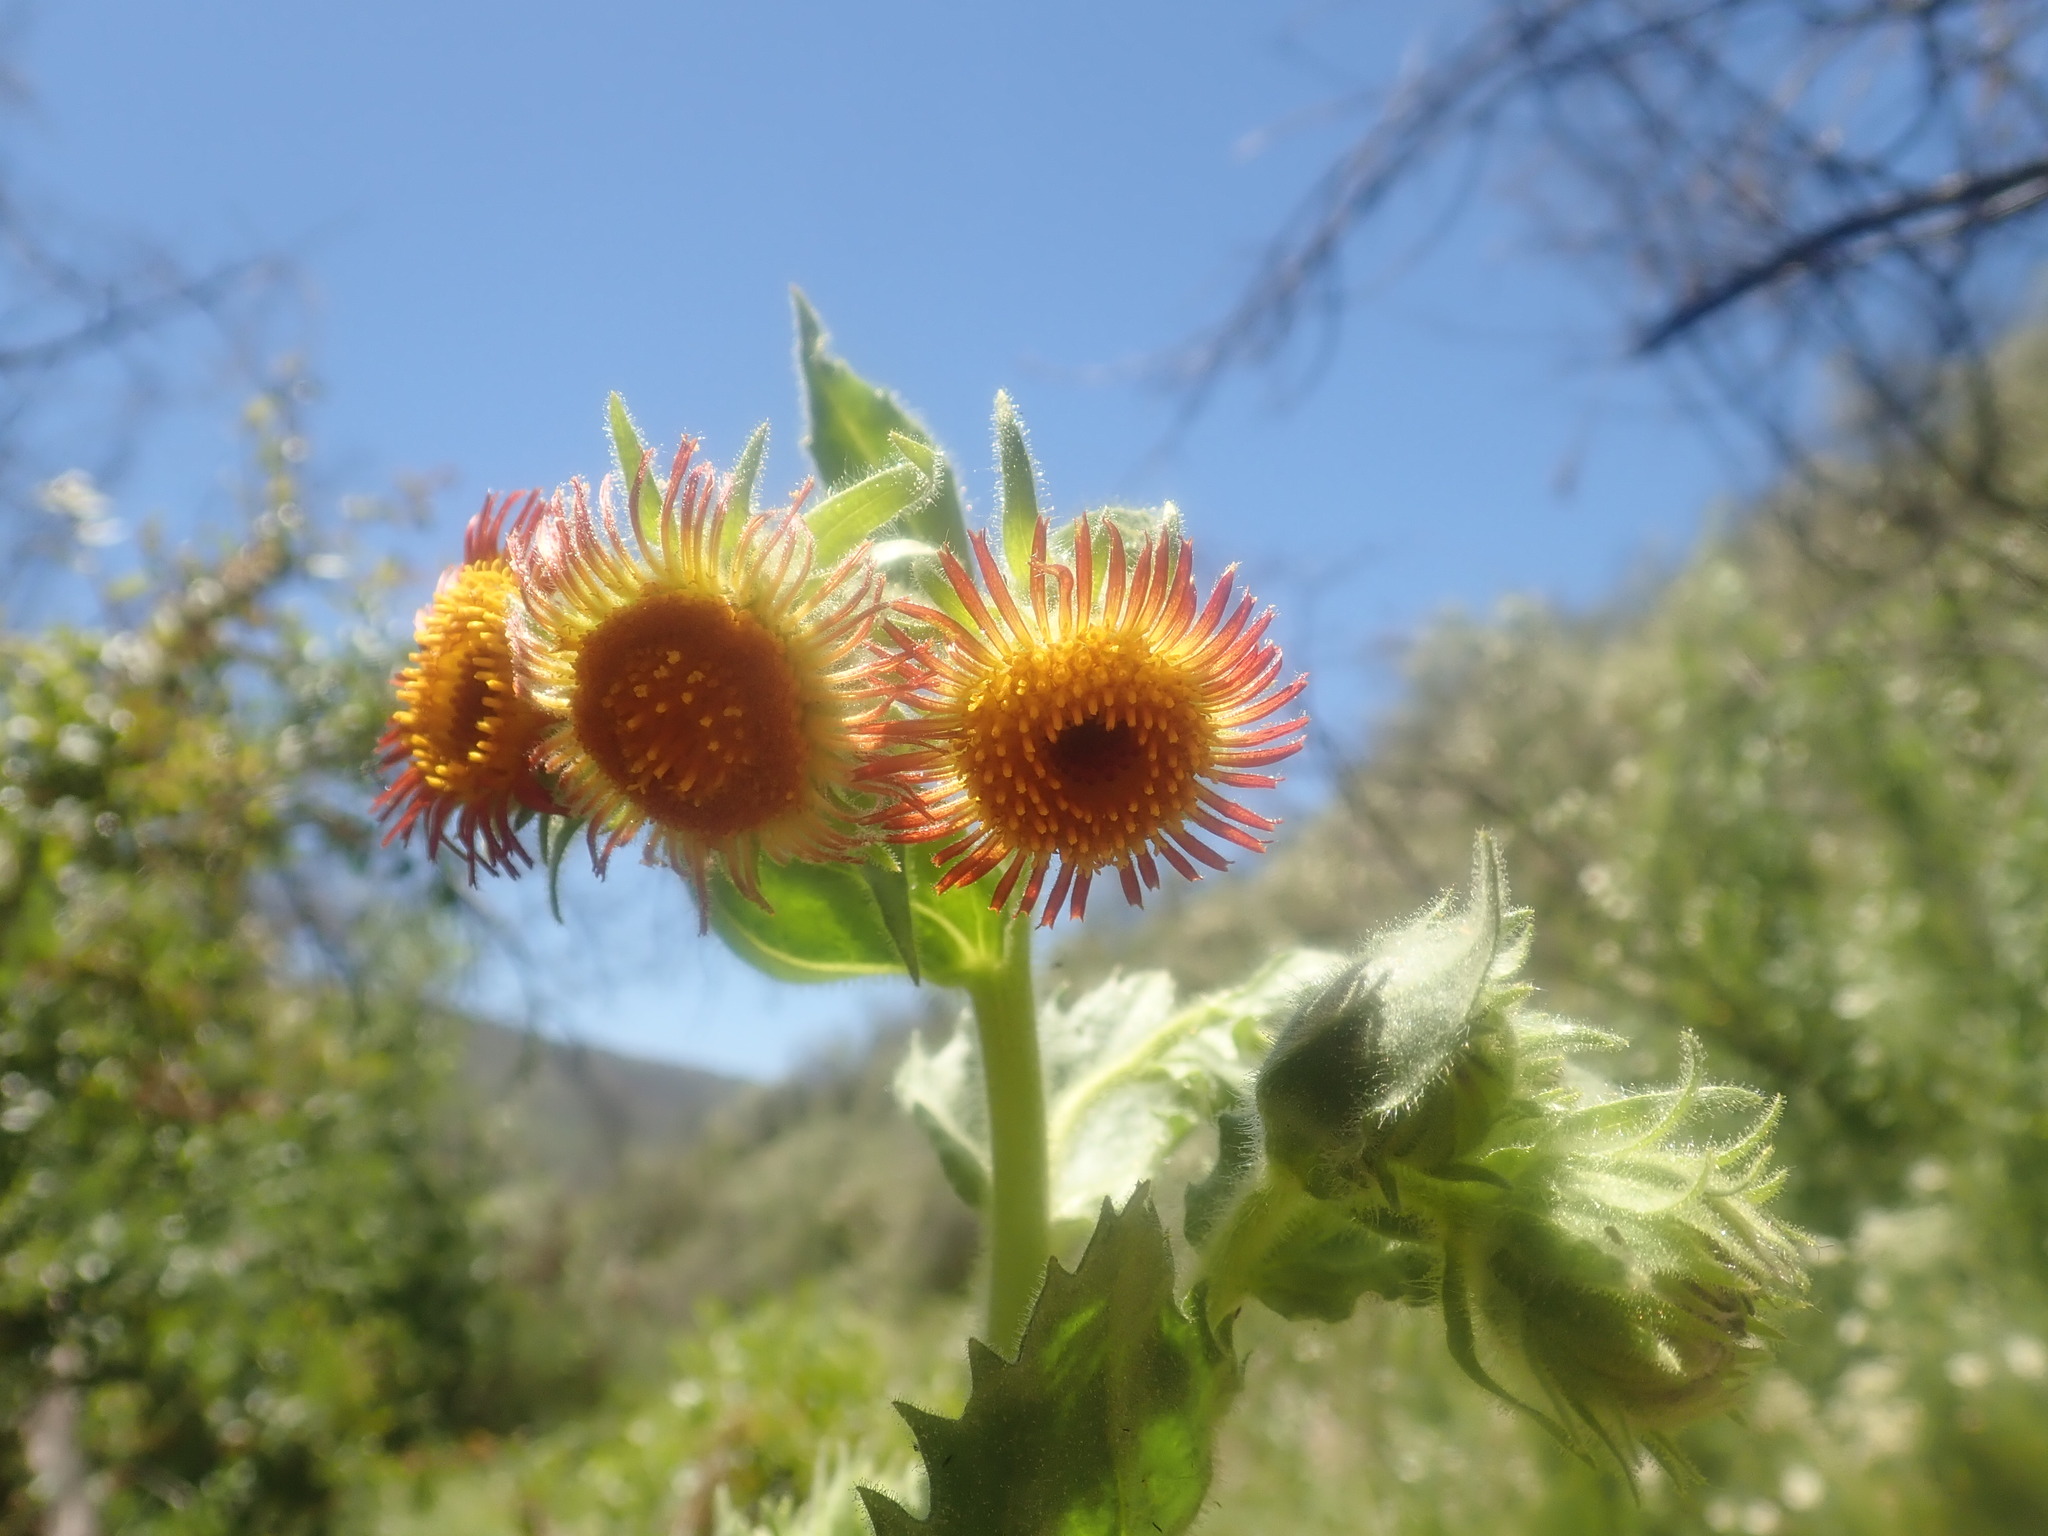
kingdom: Plantae
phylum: Tracheophyta
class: Magnoliopsida
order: Asterales
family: Asteraceae
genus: Hulsea
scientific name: Hulsea heterochroma
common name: Redray alpinegold
